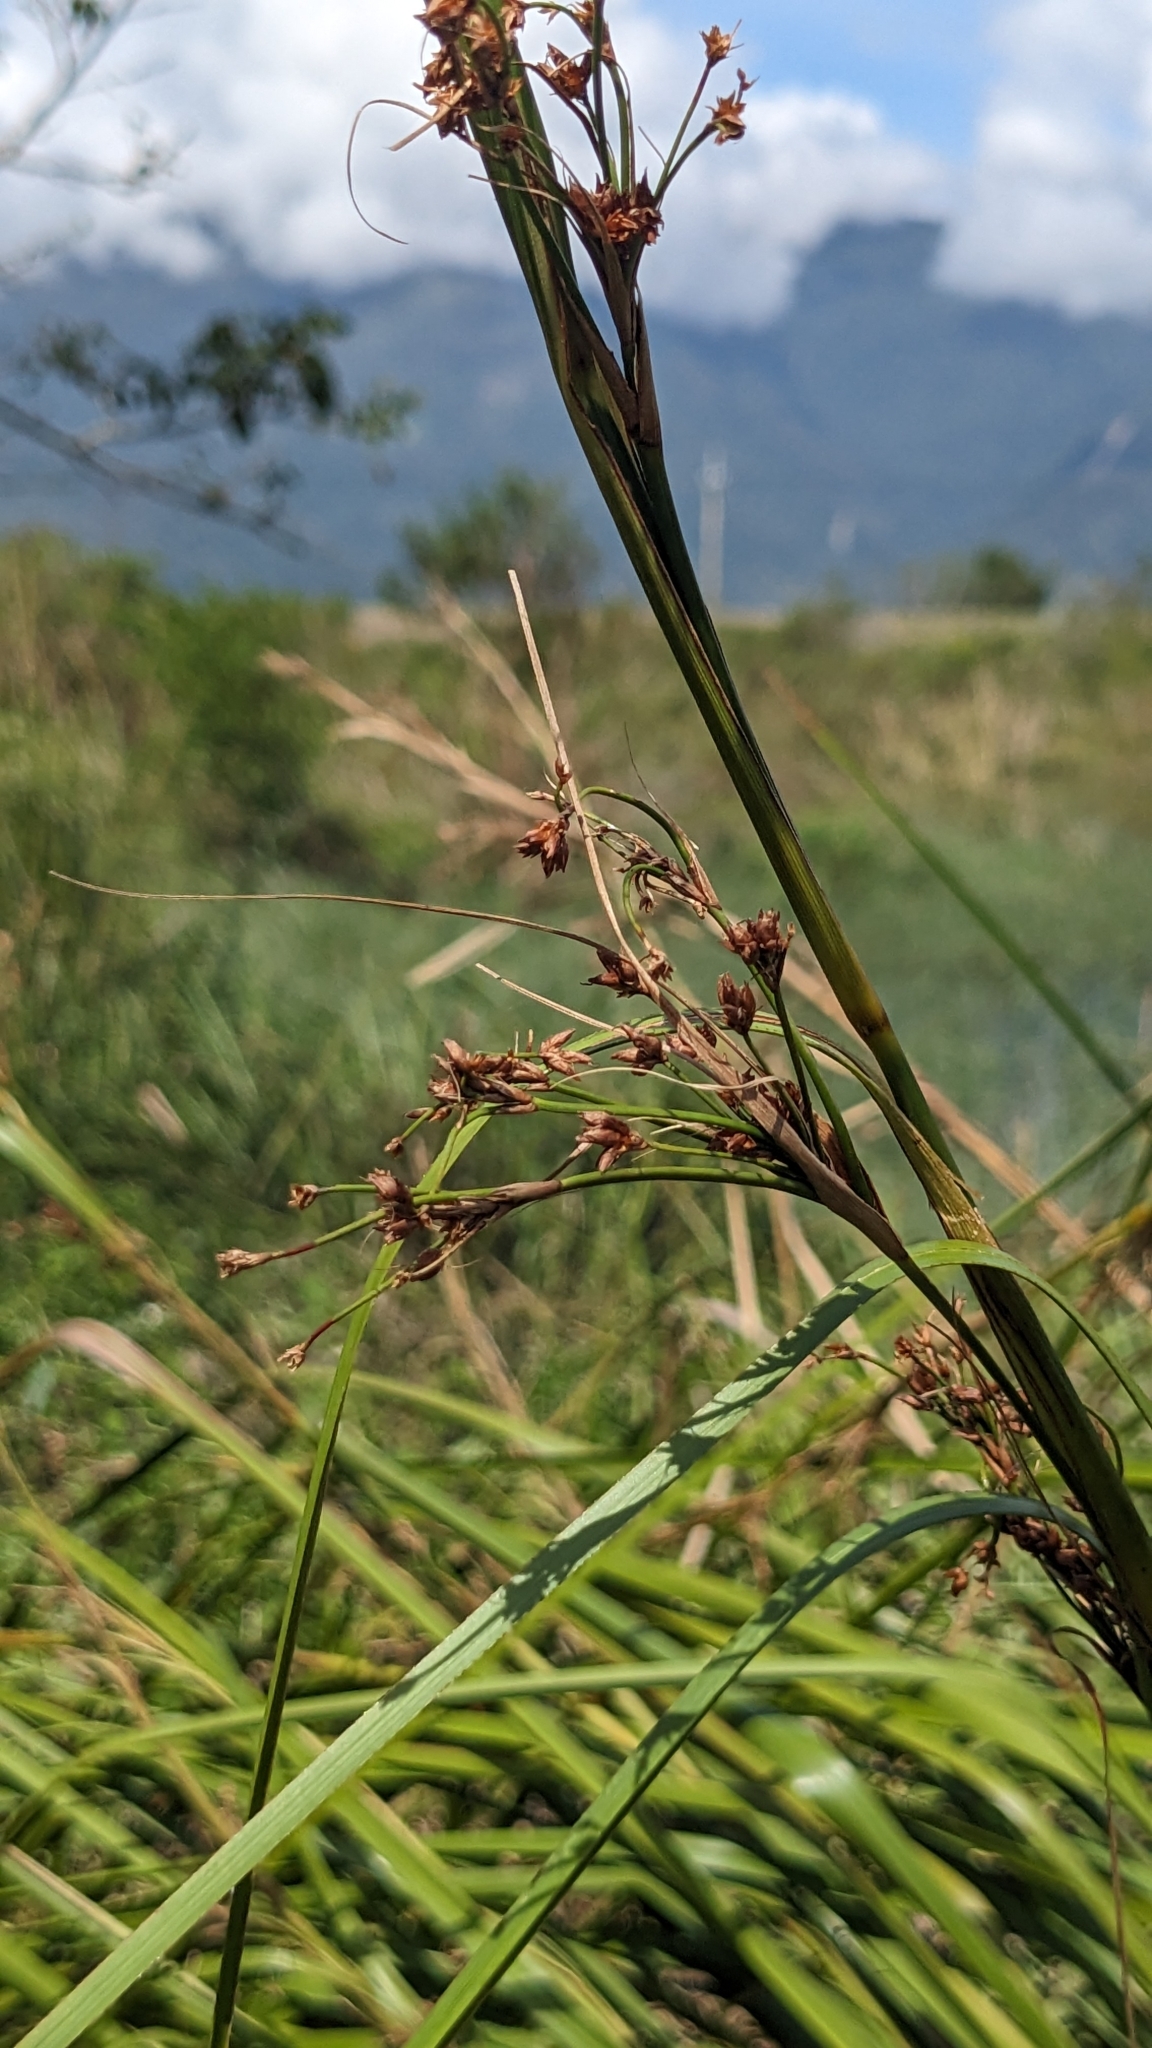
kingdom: Plantae
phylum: Tracheophyta
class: Liliopsida
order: Poales
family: Cyperaceae
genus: Cladium
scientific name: Cladium mariscus
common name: Great fen-sedge
